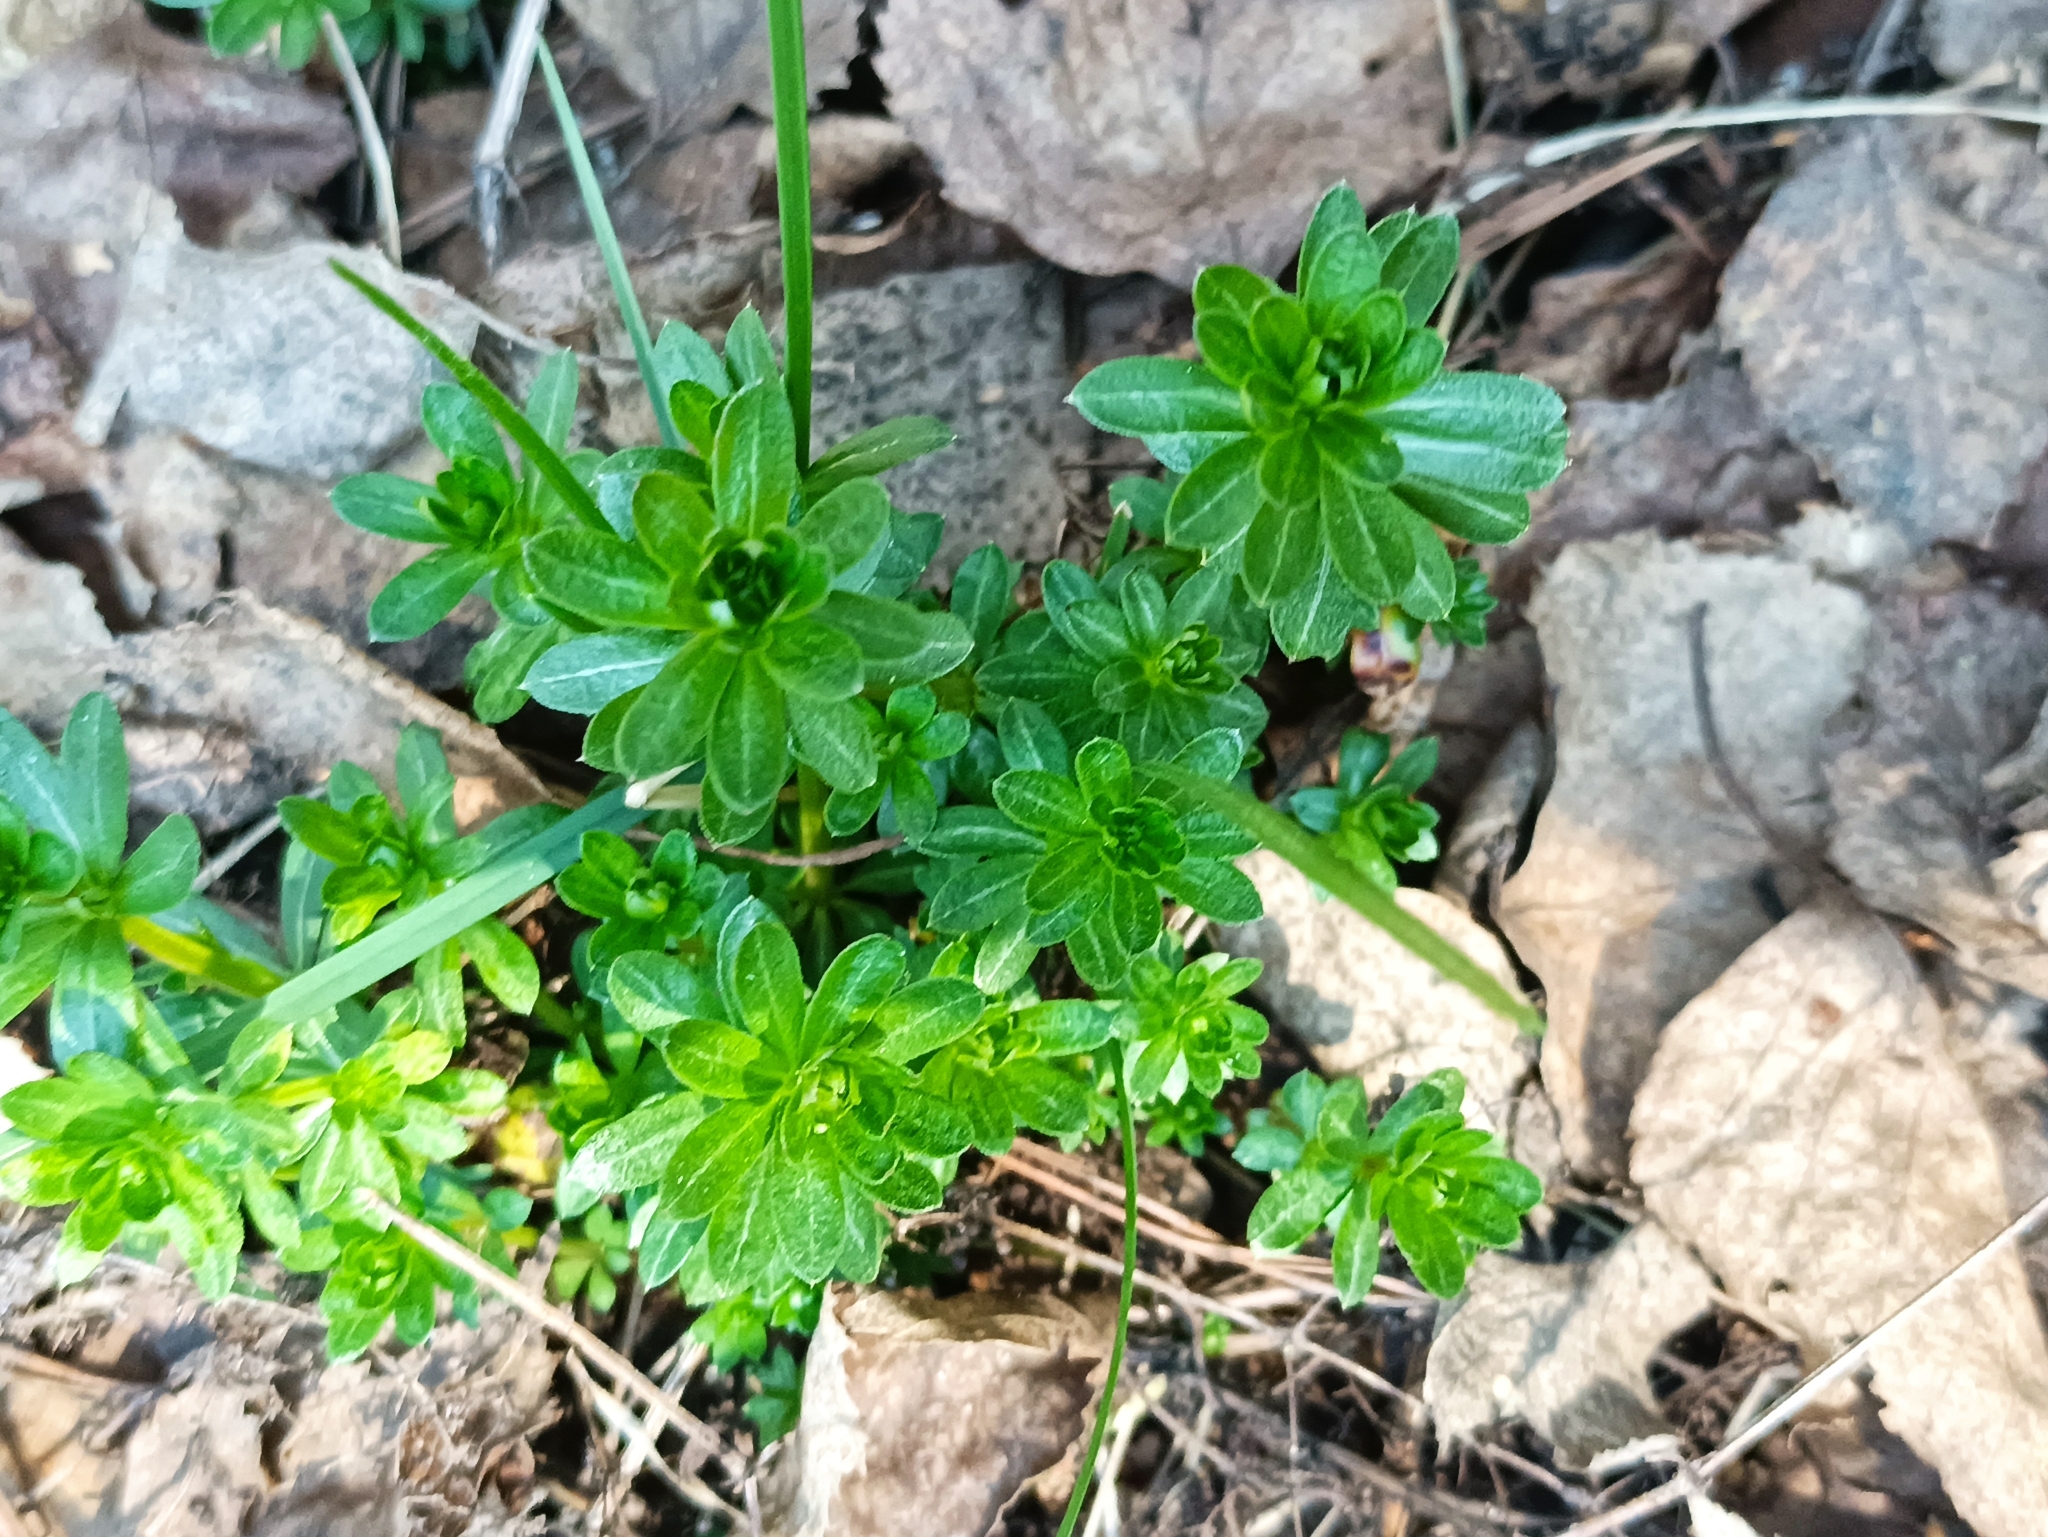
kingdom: Plantae
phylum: Tracheophyta
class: Magnoliopsida
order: Gentianales
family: Rubiaceae
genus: Galium
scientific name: Galium mollugo
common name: Hedge bedstraw
